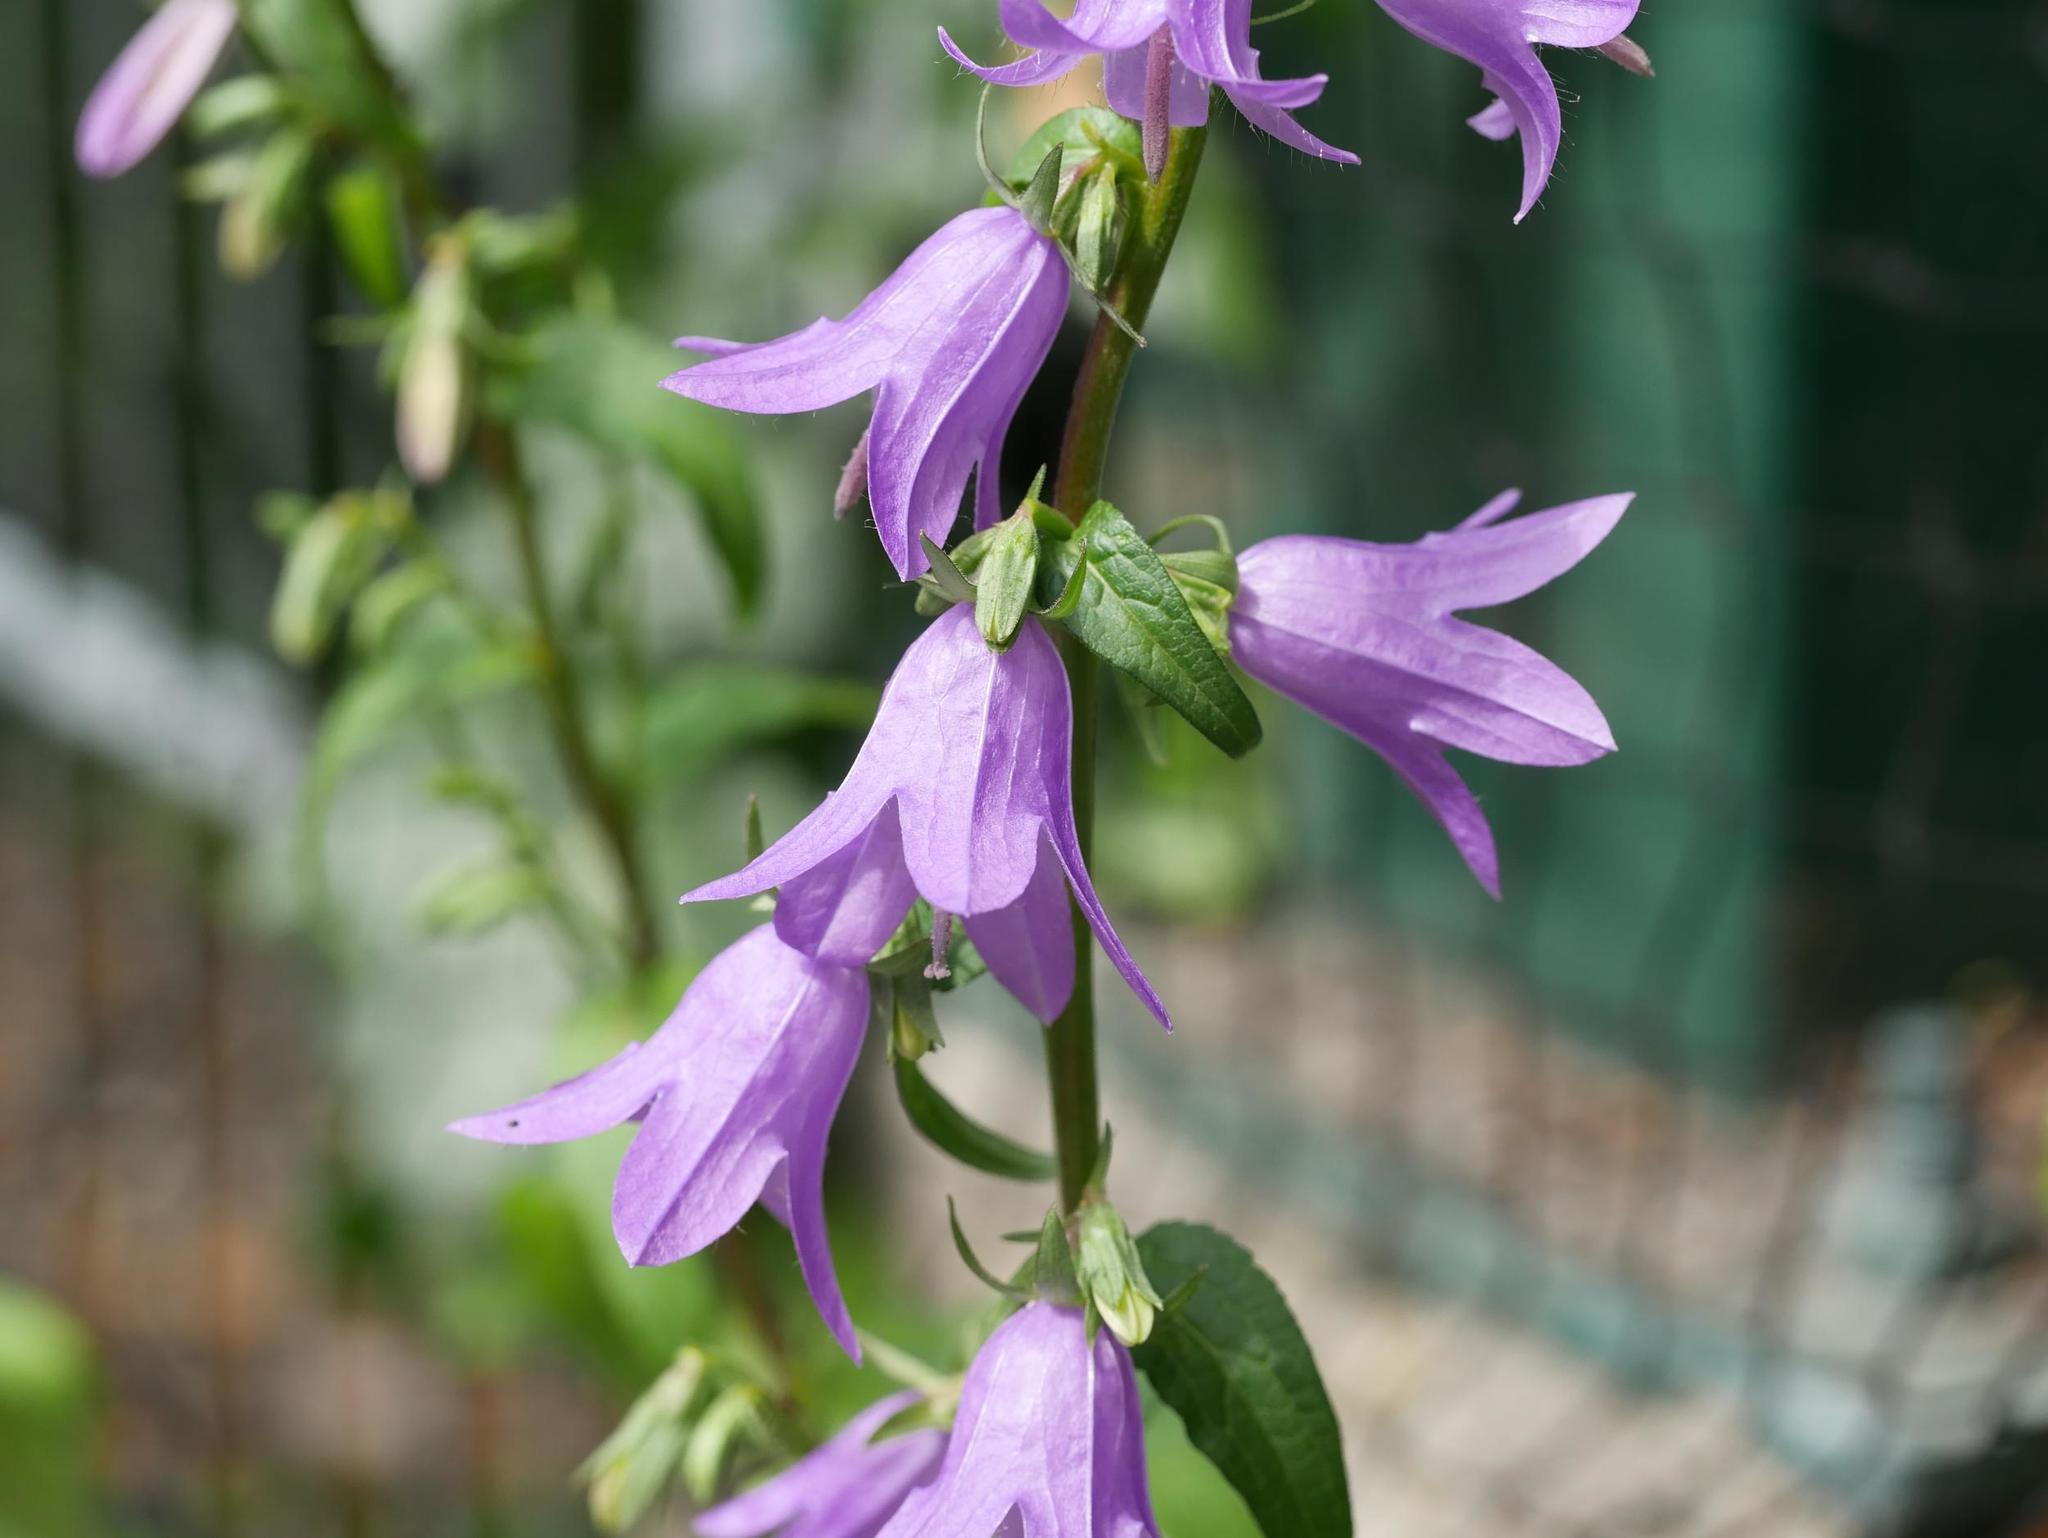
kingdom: Plantae
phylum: Tracheophyta
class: Magnoliopsida
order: Asterales
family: Campanulaceae
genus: Campanula
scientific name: Campanula rapunculoides
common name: Creeping bellflower
